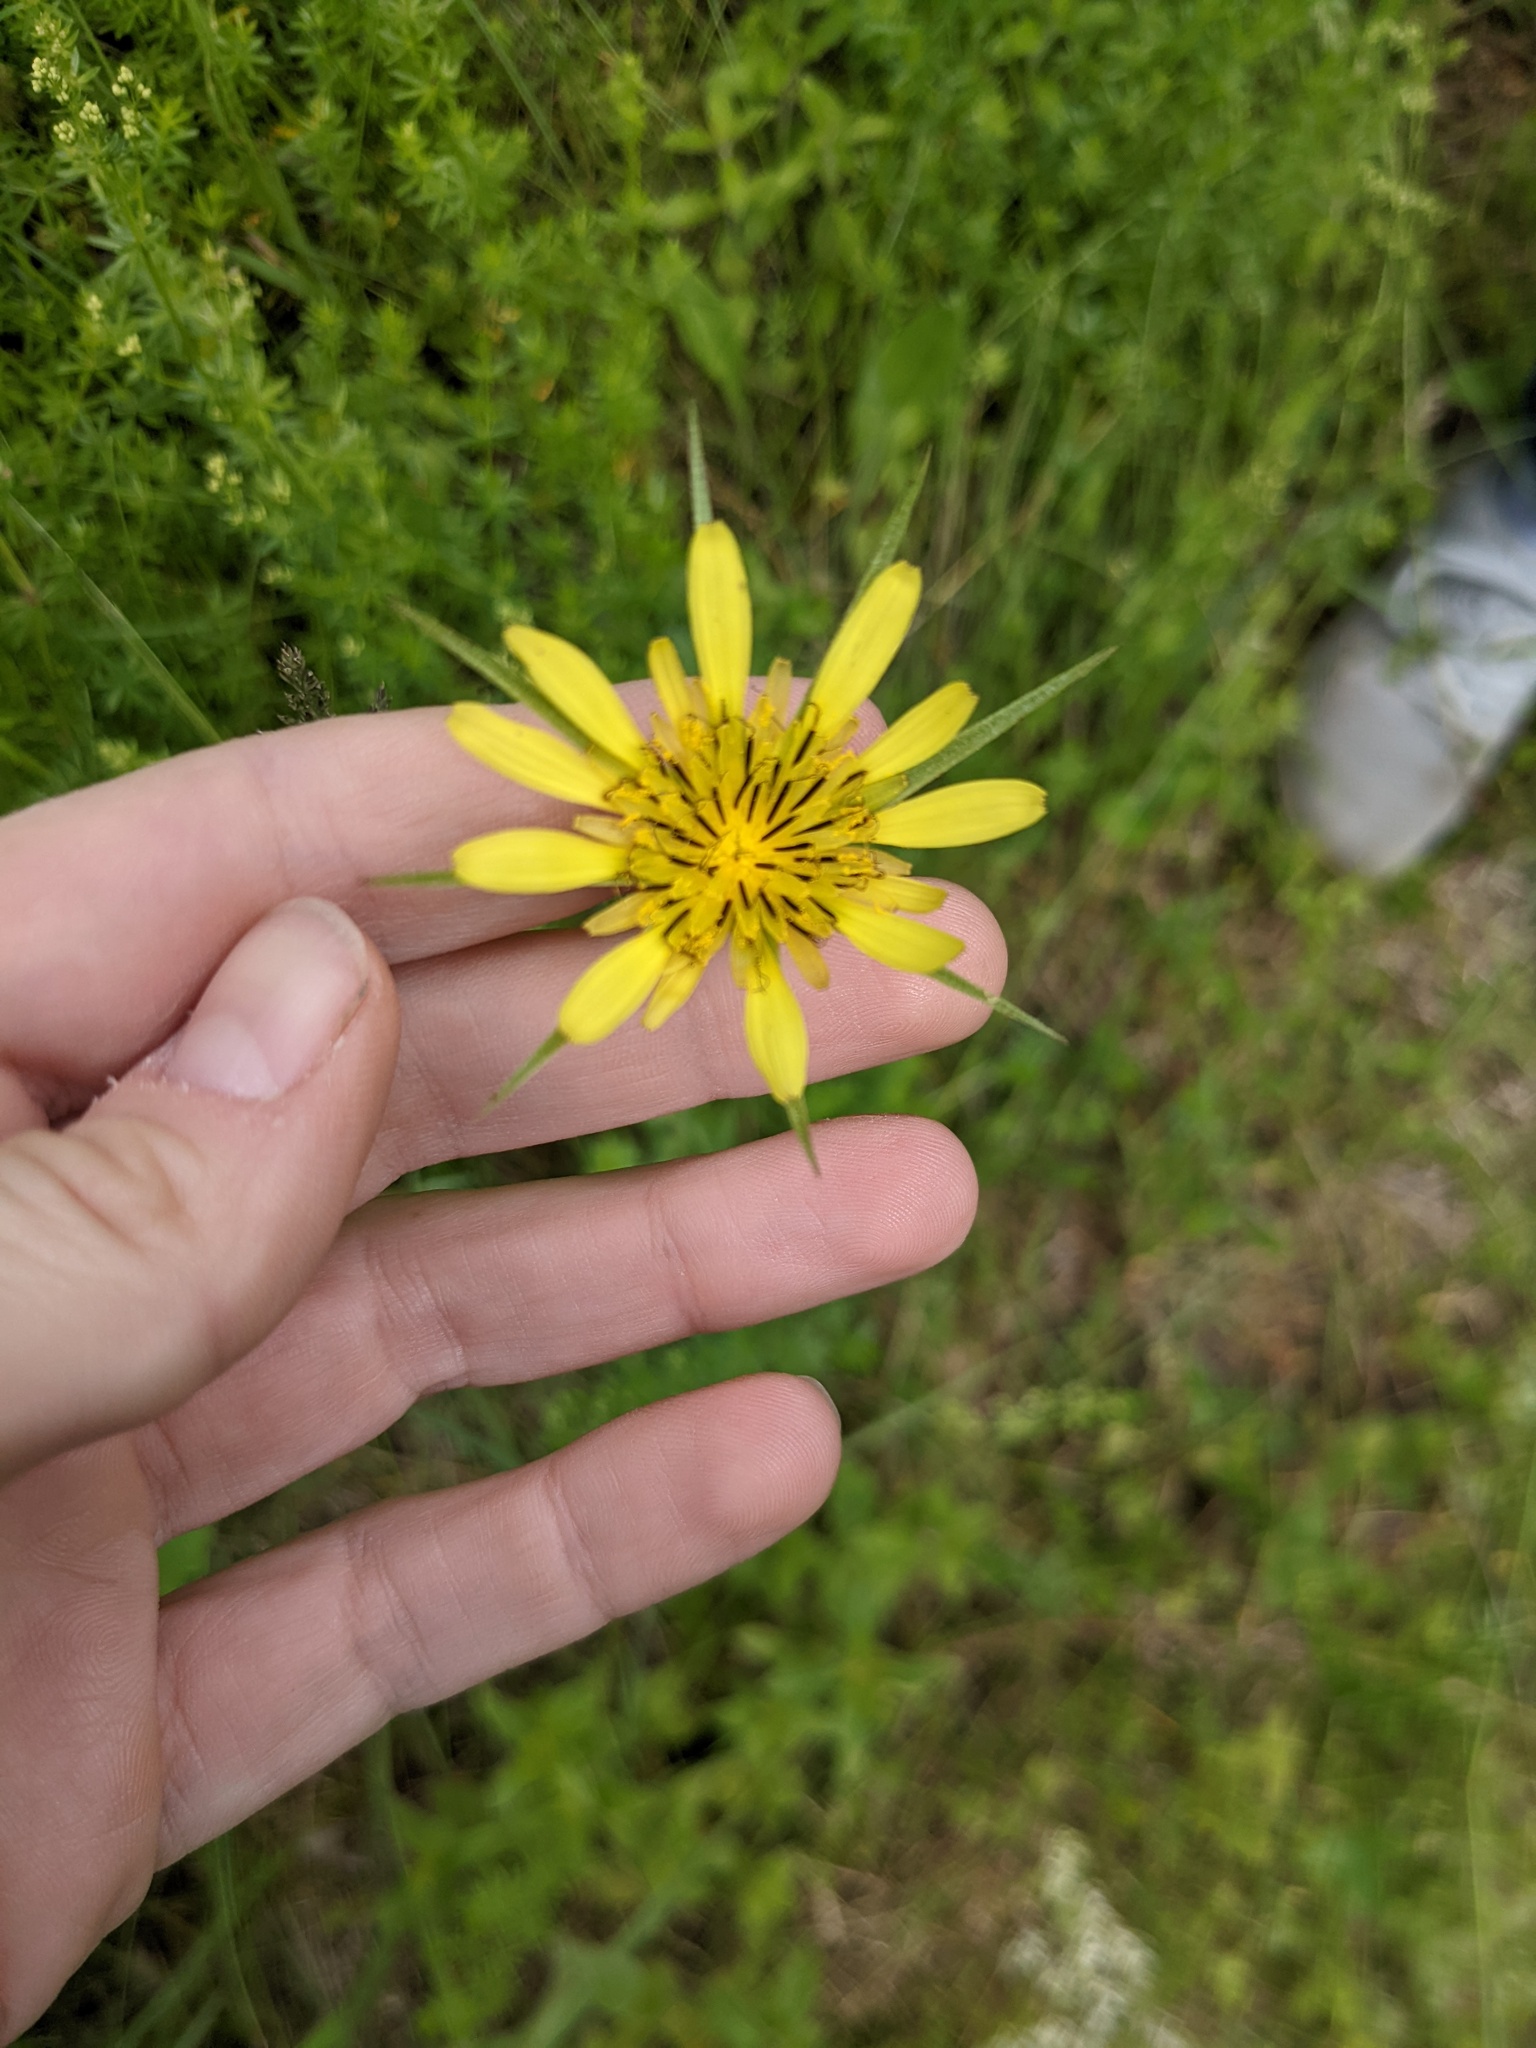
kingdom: Plantae
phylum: Tracheophyta
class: Magnoliopsida
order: Asterales
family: Asteraceae
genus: Tragopogon
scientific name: Tragopogon dubius
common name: Yellow salsify
